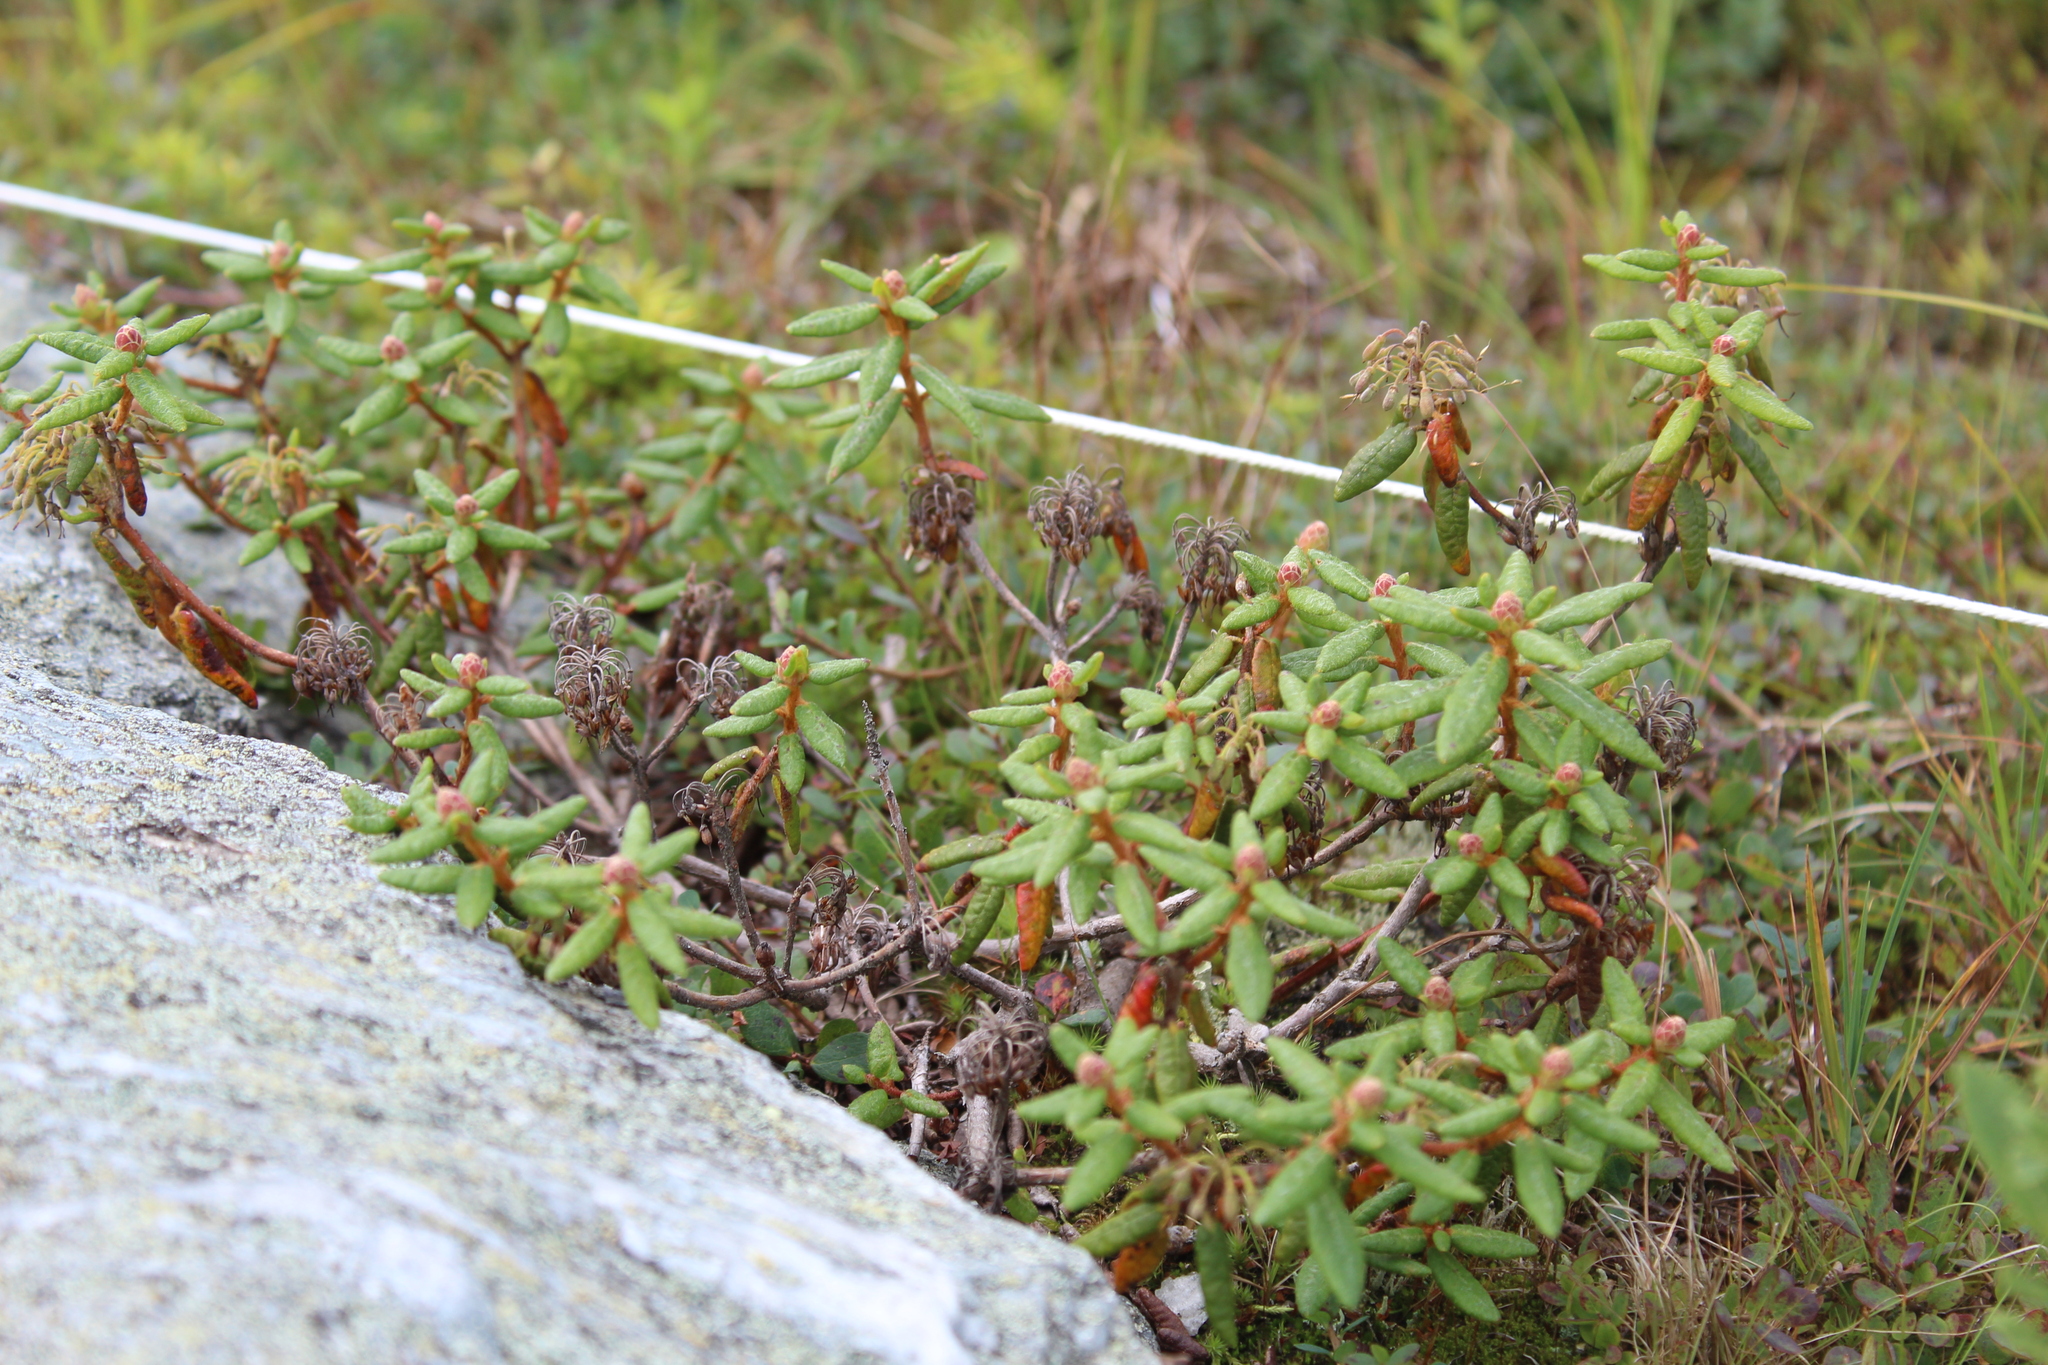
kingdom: Plantae
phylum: Tracheophyta
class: Magnoliopsida
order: Ericales
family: Ericaceae
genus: Rhododendron
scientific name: Rhododendron groenlandicum
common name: Bog labrador tea
